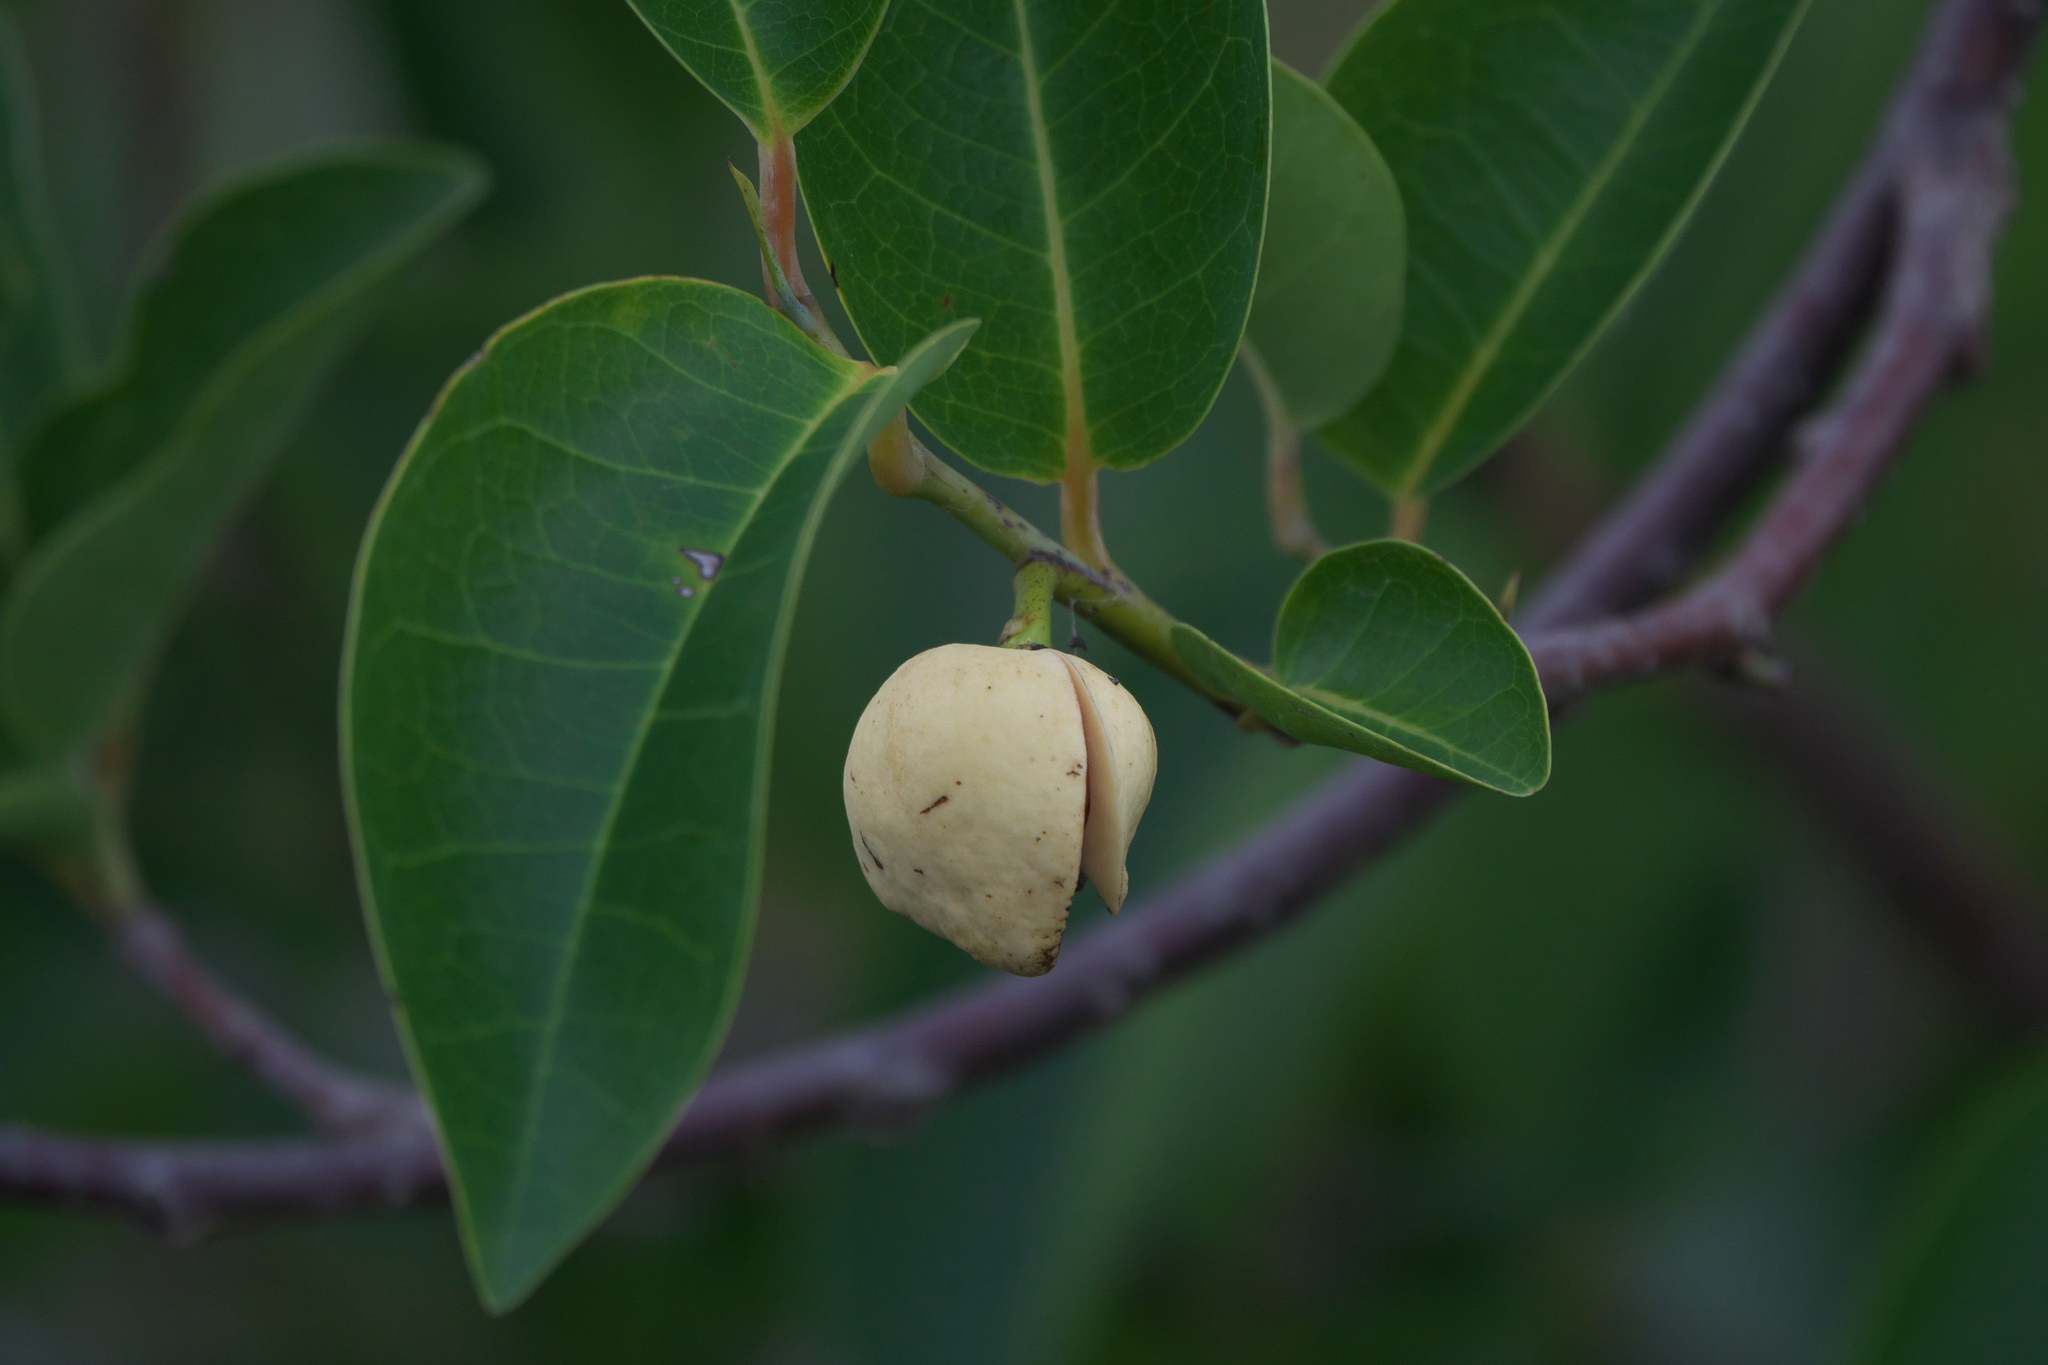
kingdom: Plantae
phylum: Tracheophyta
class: Magnoliopsida
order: Magnoliales
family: Annonaceae
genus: Annona
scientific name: Annona glabra
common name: Monkey apple
